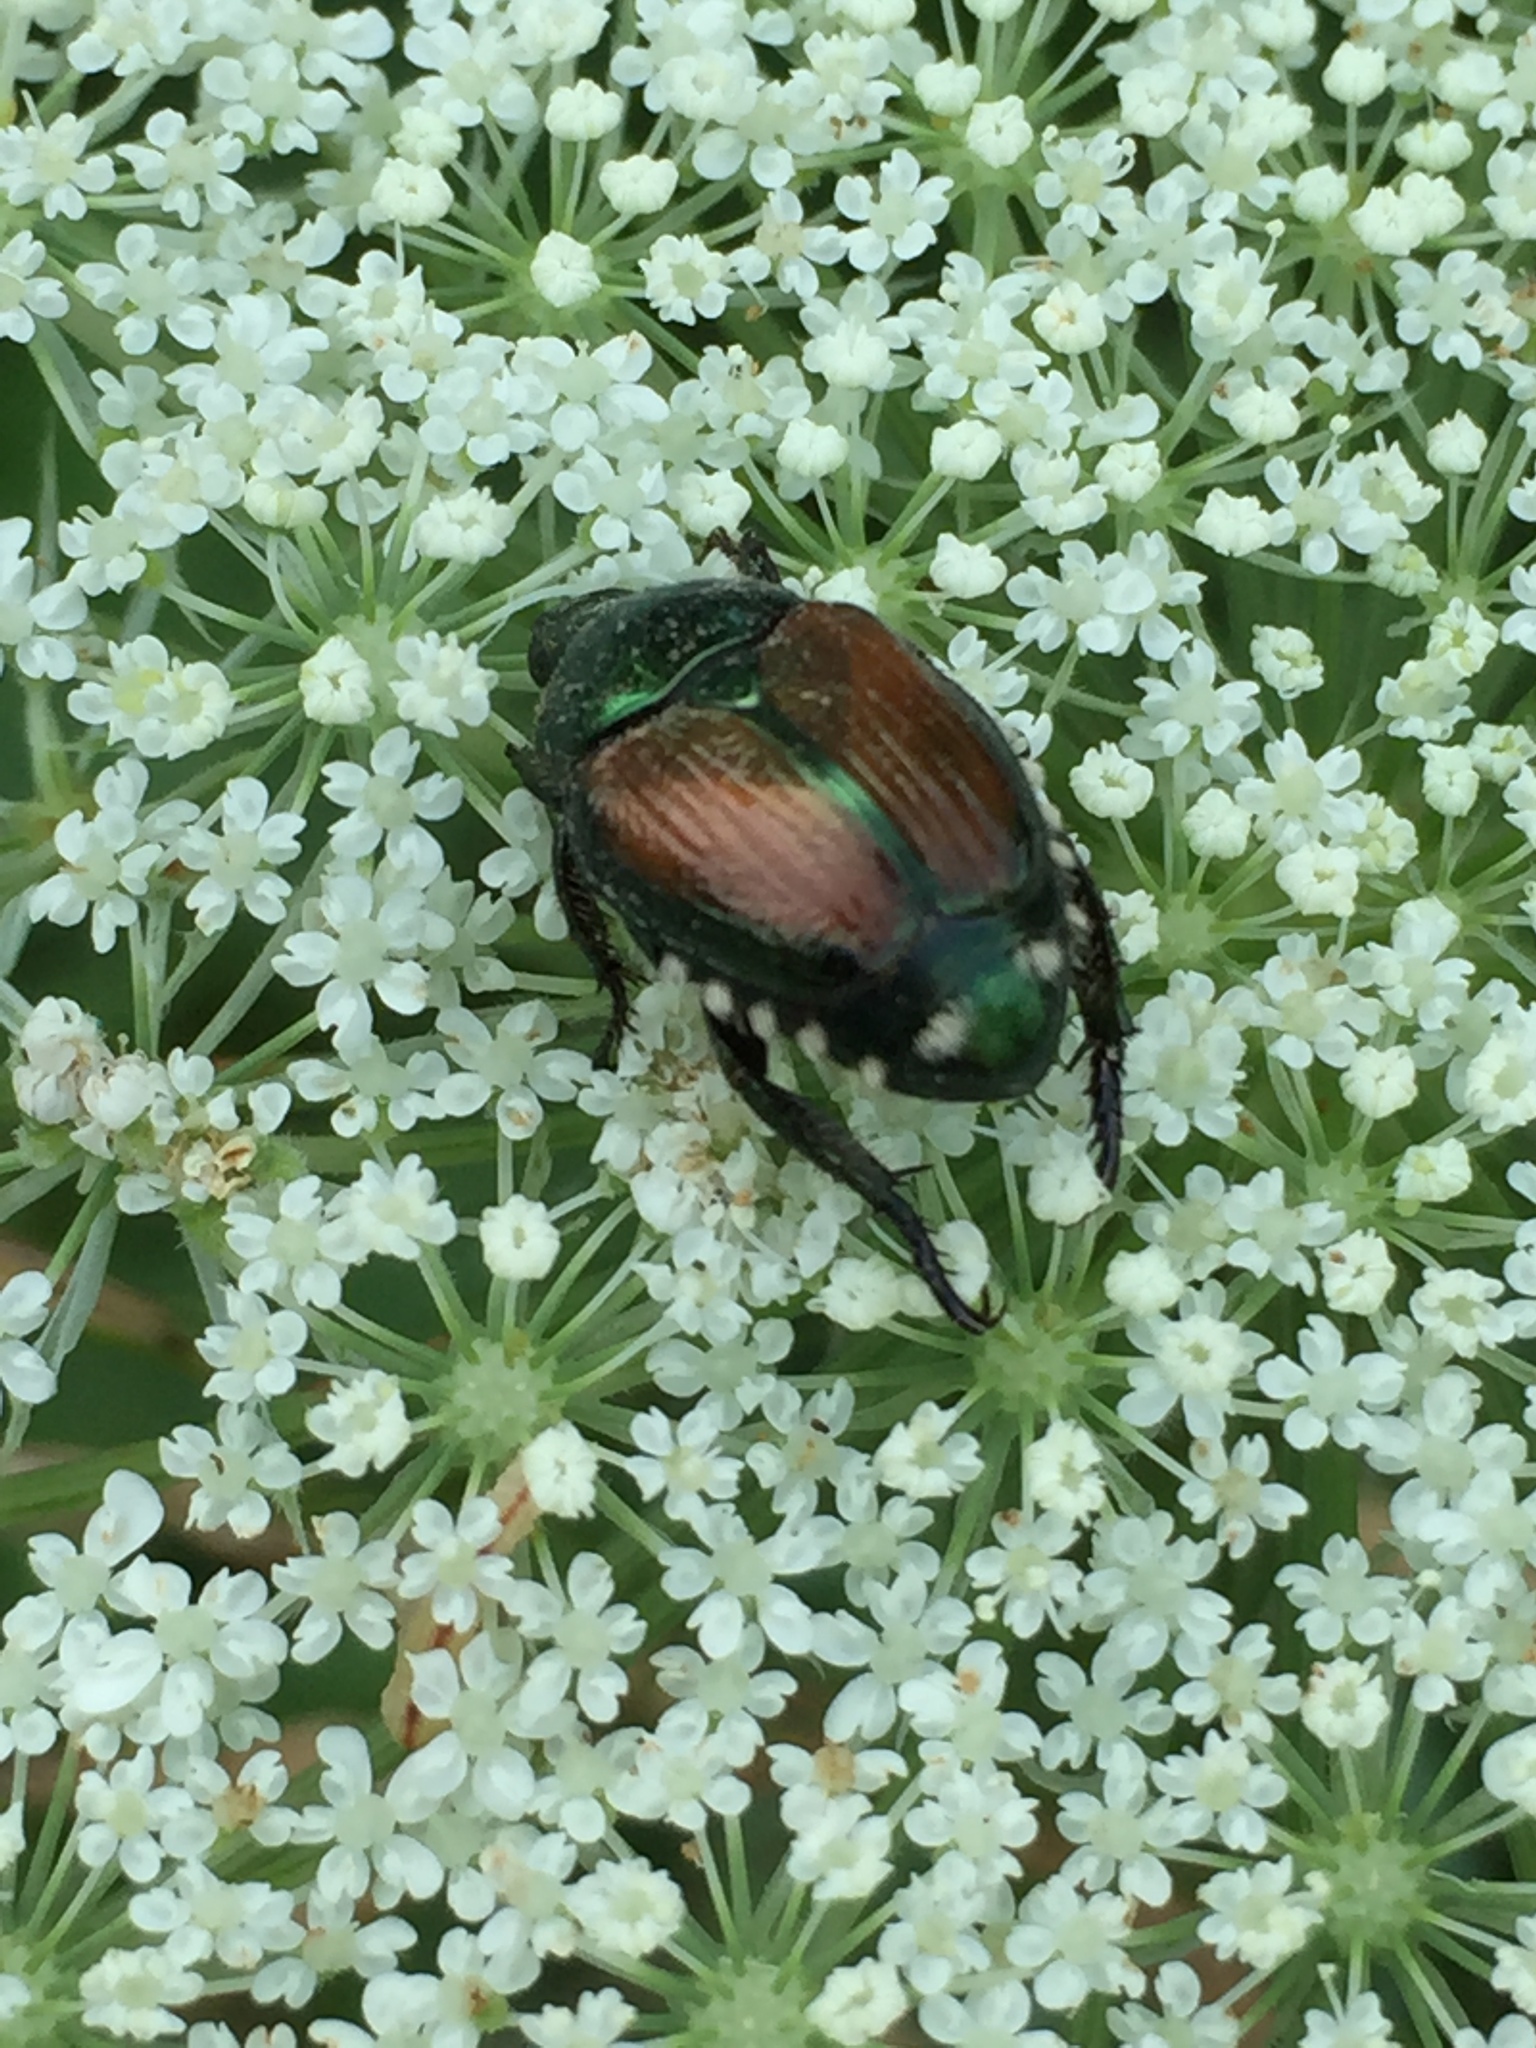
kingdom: Animalia
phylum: Arthropoda
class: Insecta
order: Coleoptera
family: Scarabaeidae
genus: Popillia
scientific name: Popillia japonica
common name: Japanese beetle
